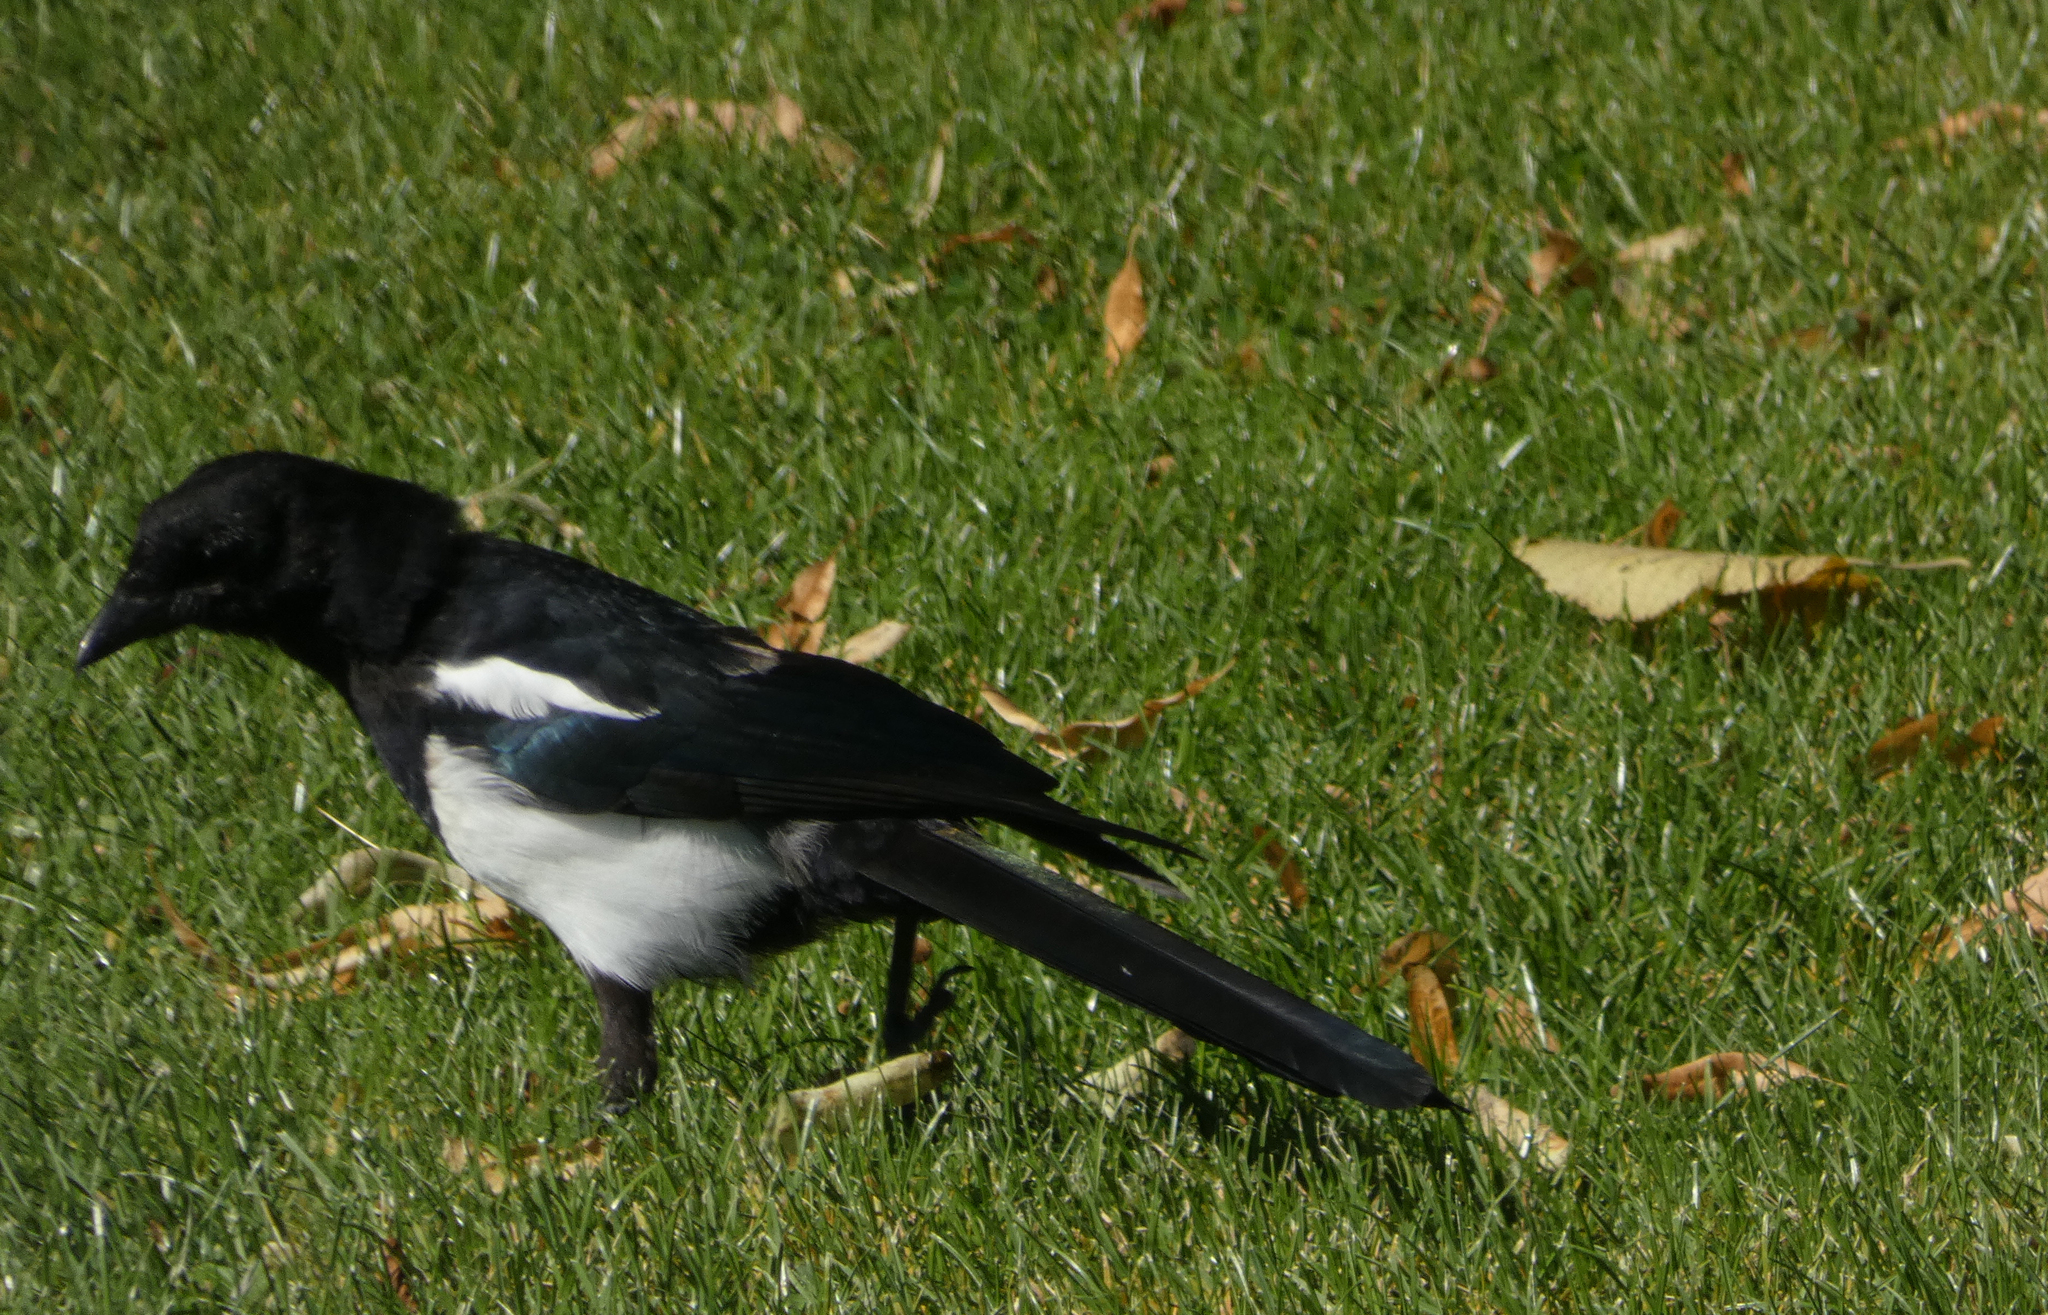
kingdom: Animalia
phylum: Chordata
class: Aves
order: Passeriformes
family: Corvidae
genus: Pica
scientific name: Pica pica
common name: Eurasian magpie
